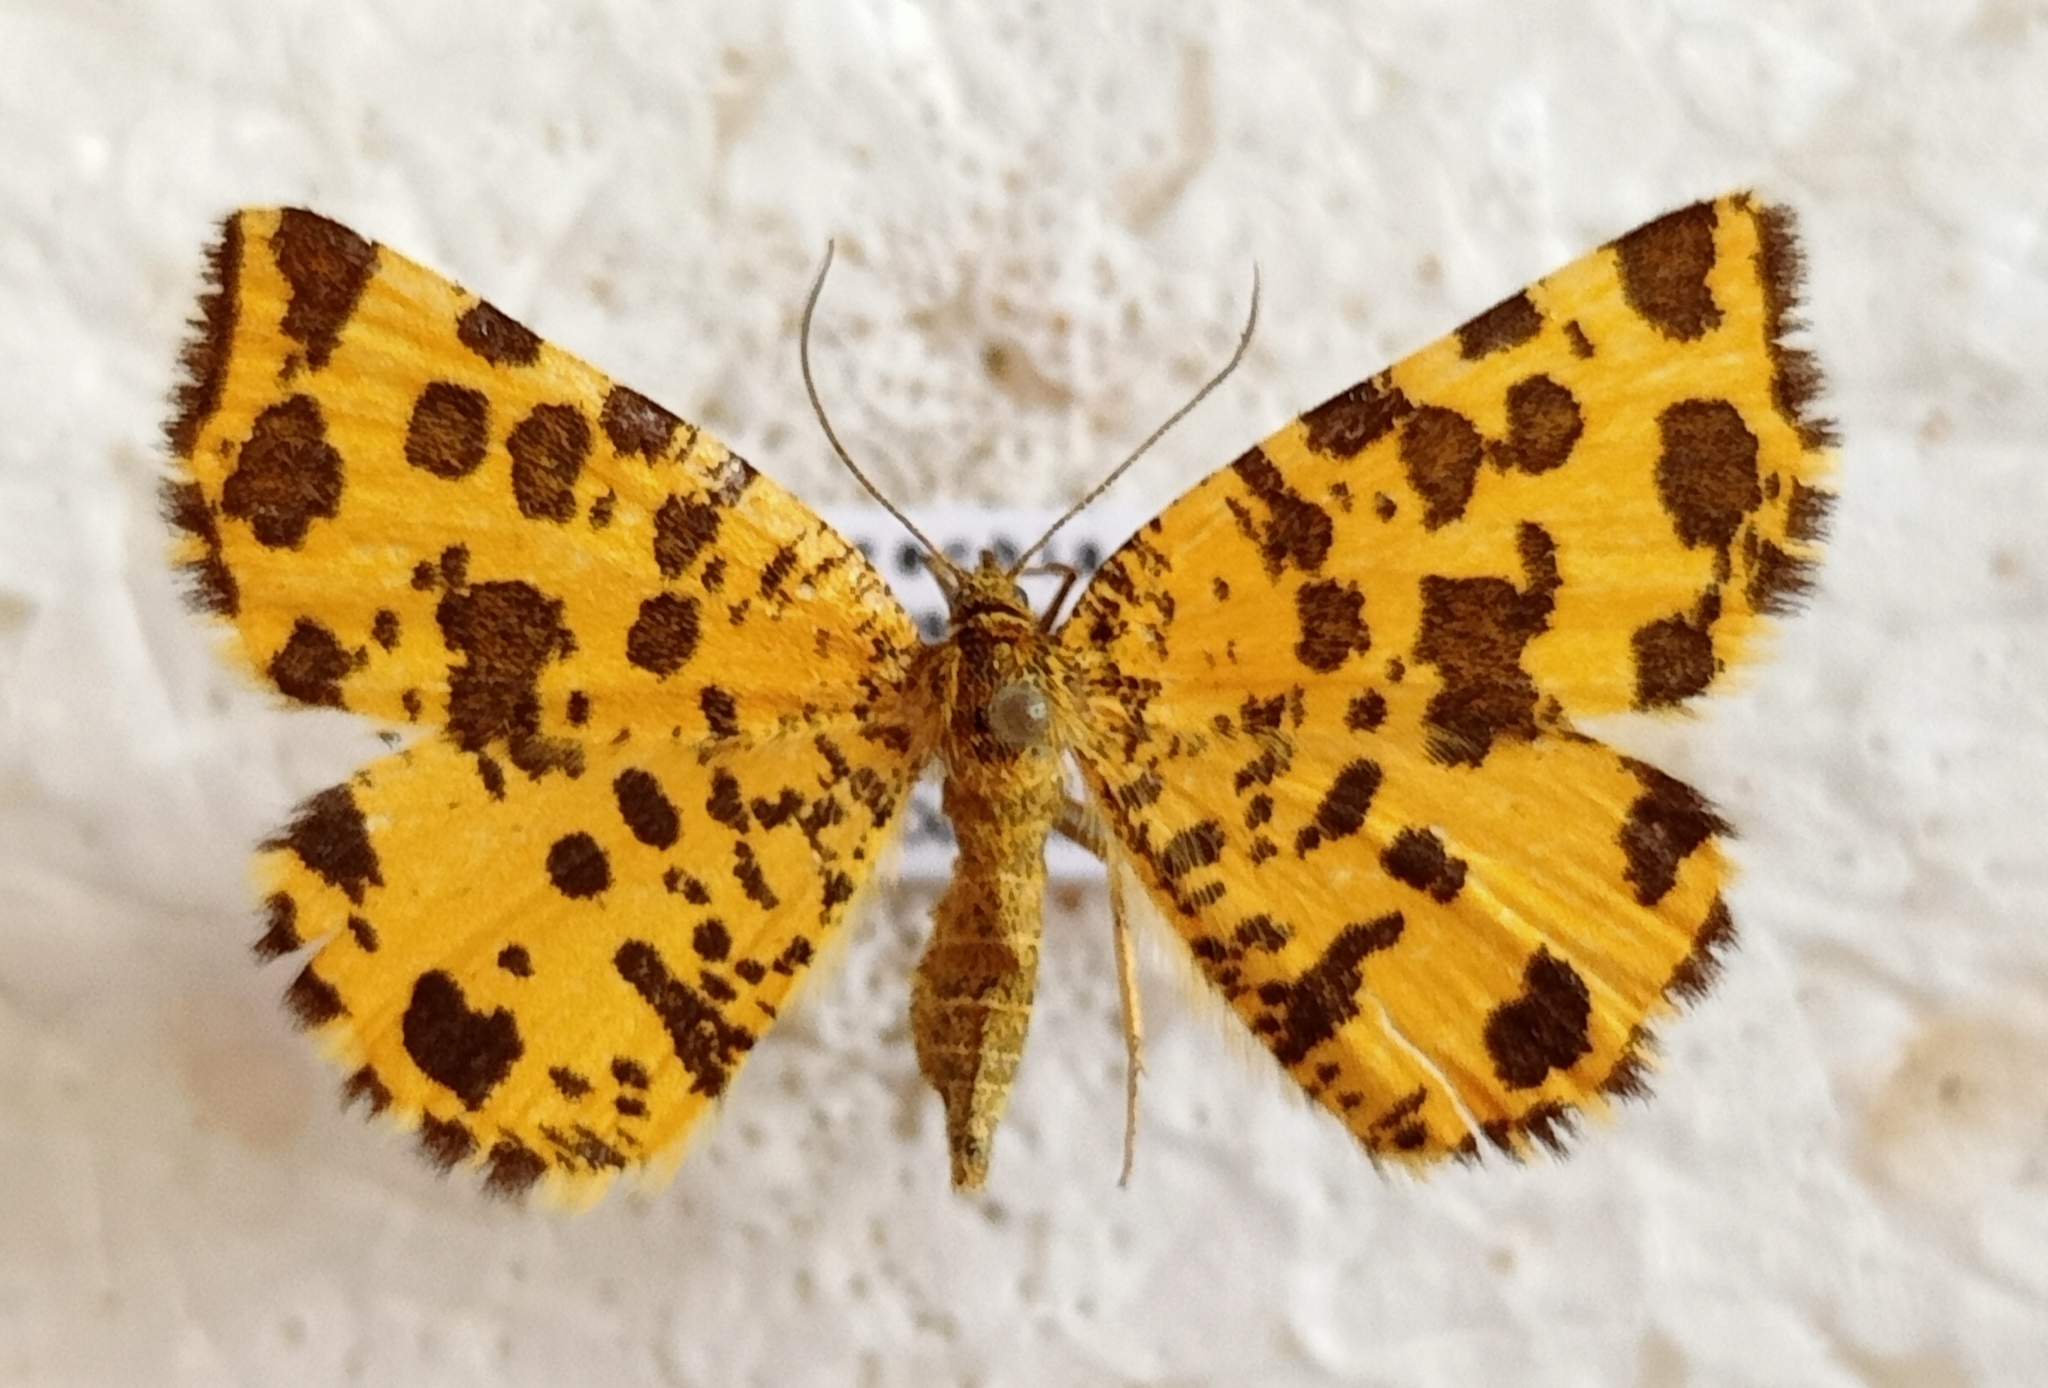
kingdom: Animalia
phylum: Arthropoda
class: Insecta
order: Lepidoptera
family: Geometridae
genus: Pseudopanthera
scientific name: Pseudopanthera macularia
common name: Speckled yellow
